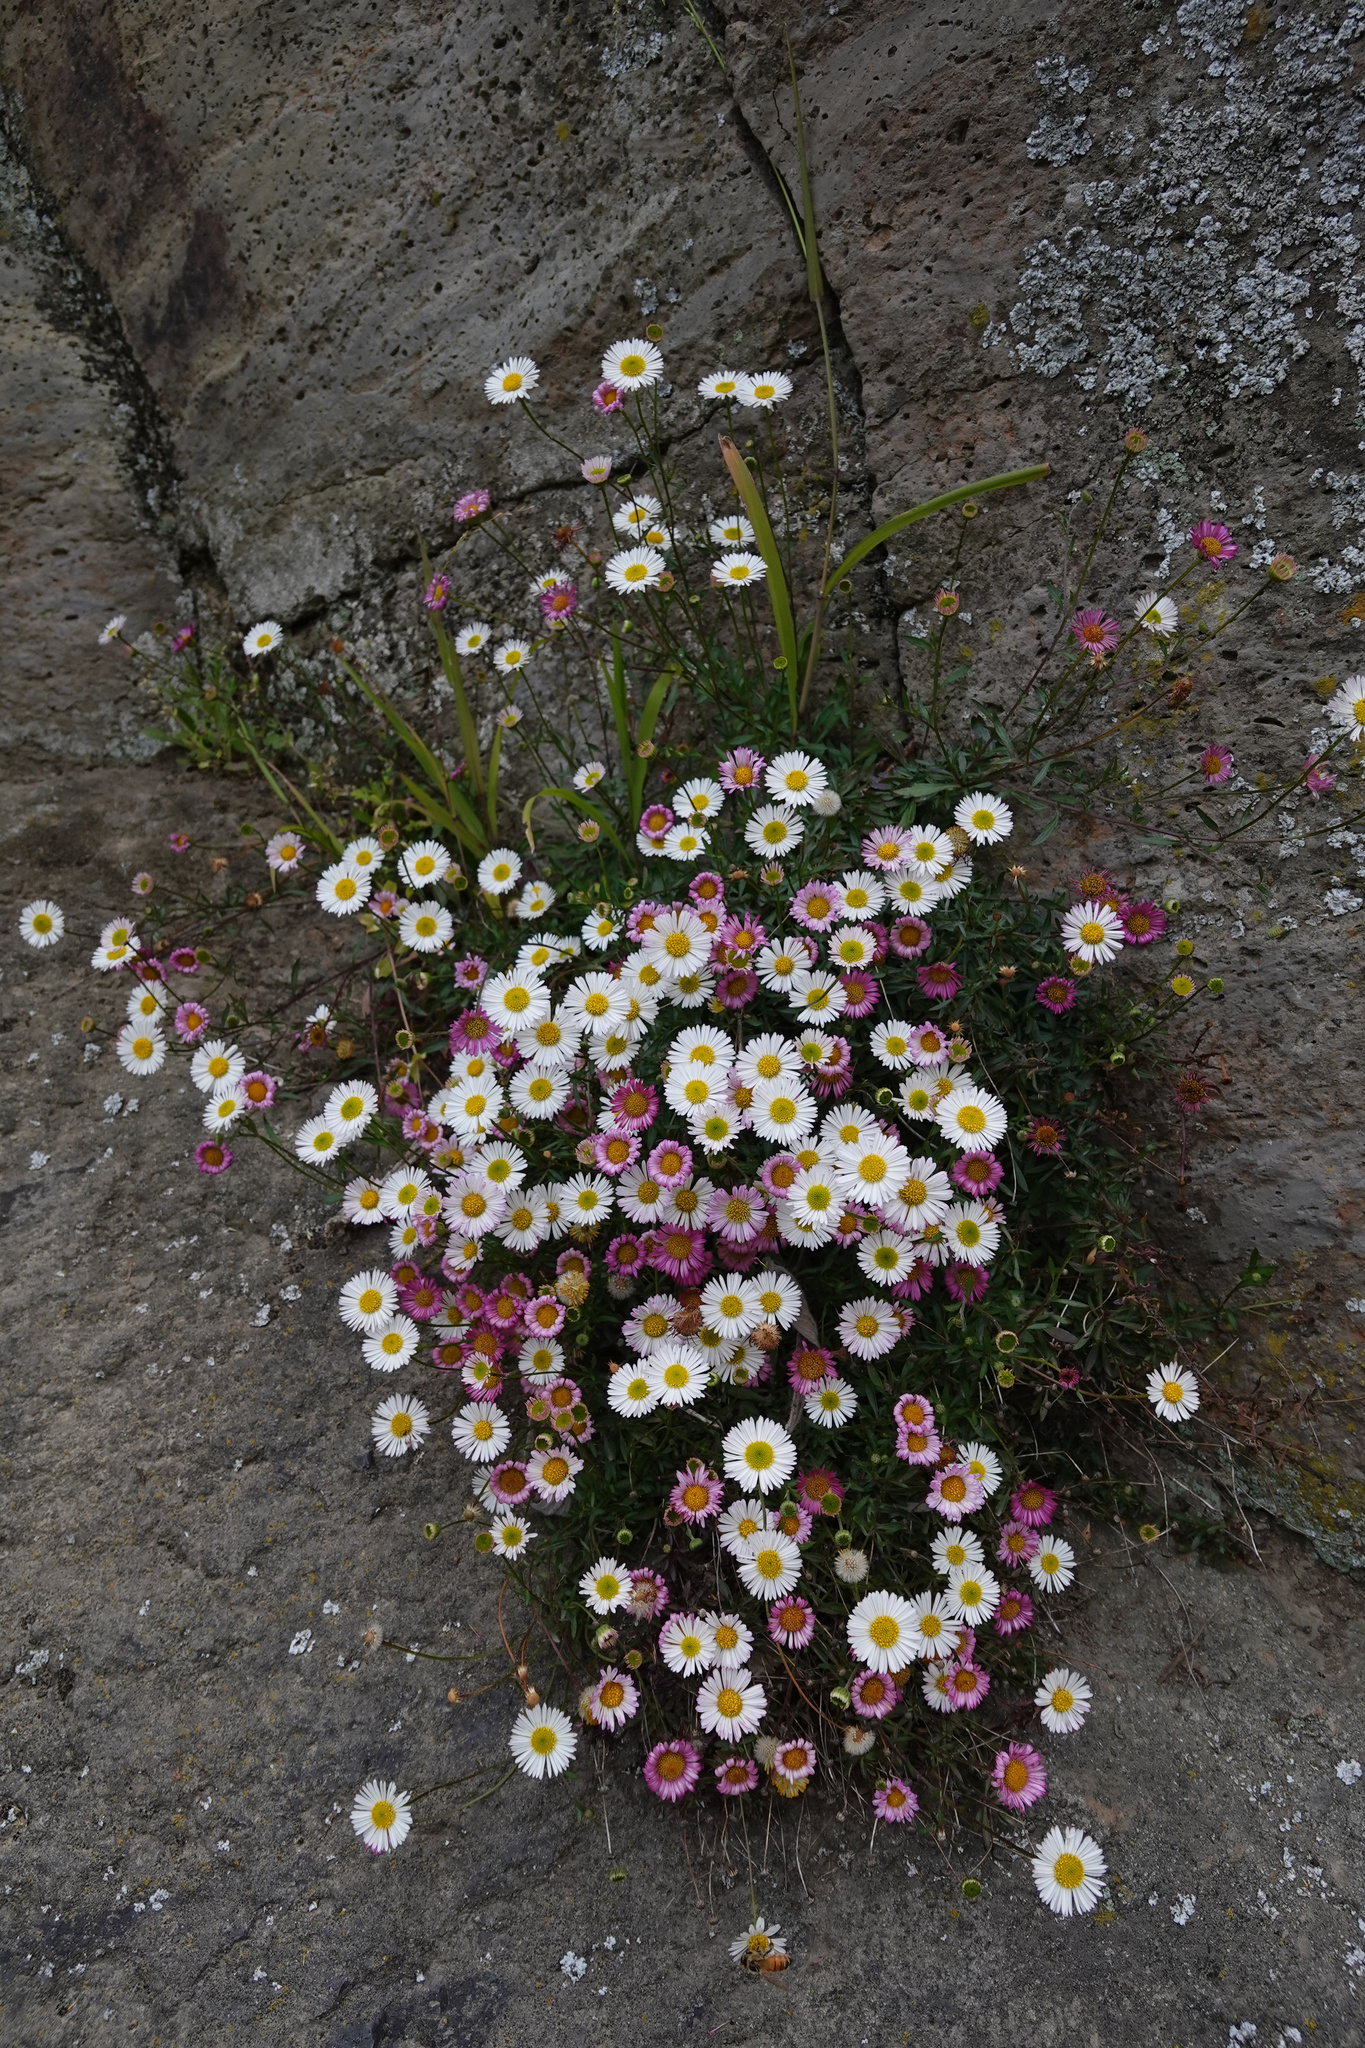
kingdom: Plantae
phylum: Tracheophyta
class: Magnoliopsida
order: Asterales
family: Asteraceae
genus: Erigeron
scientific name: Erigeron karvinskianus
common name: Mexican fleabane
